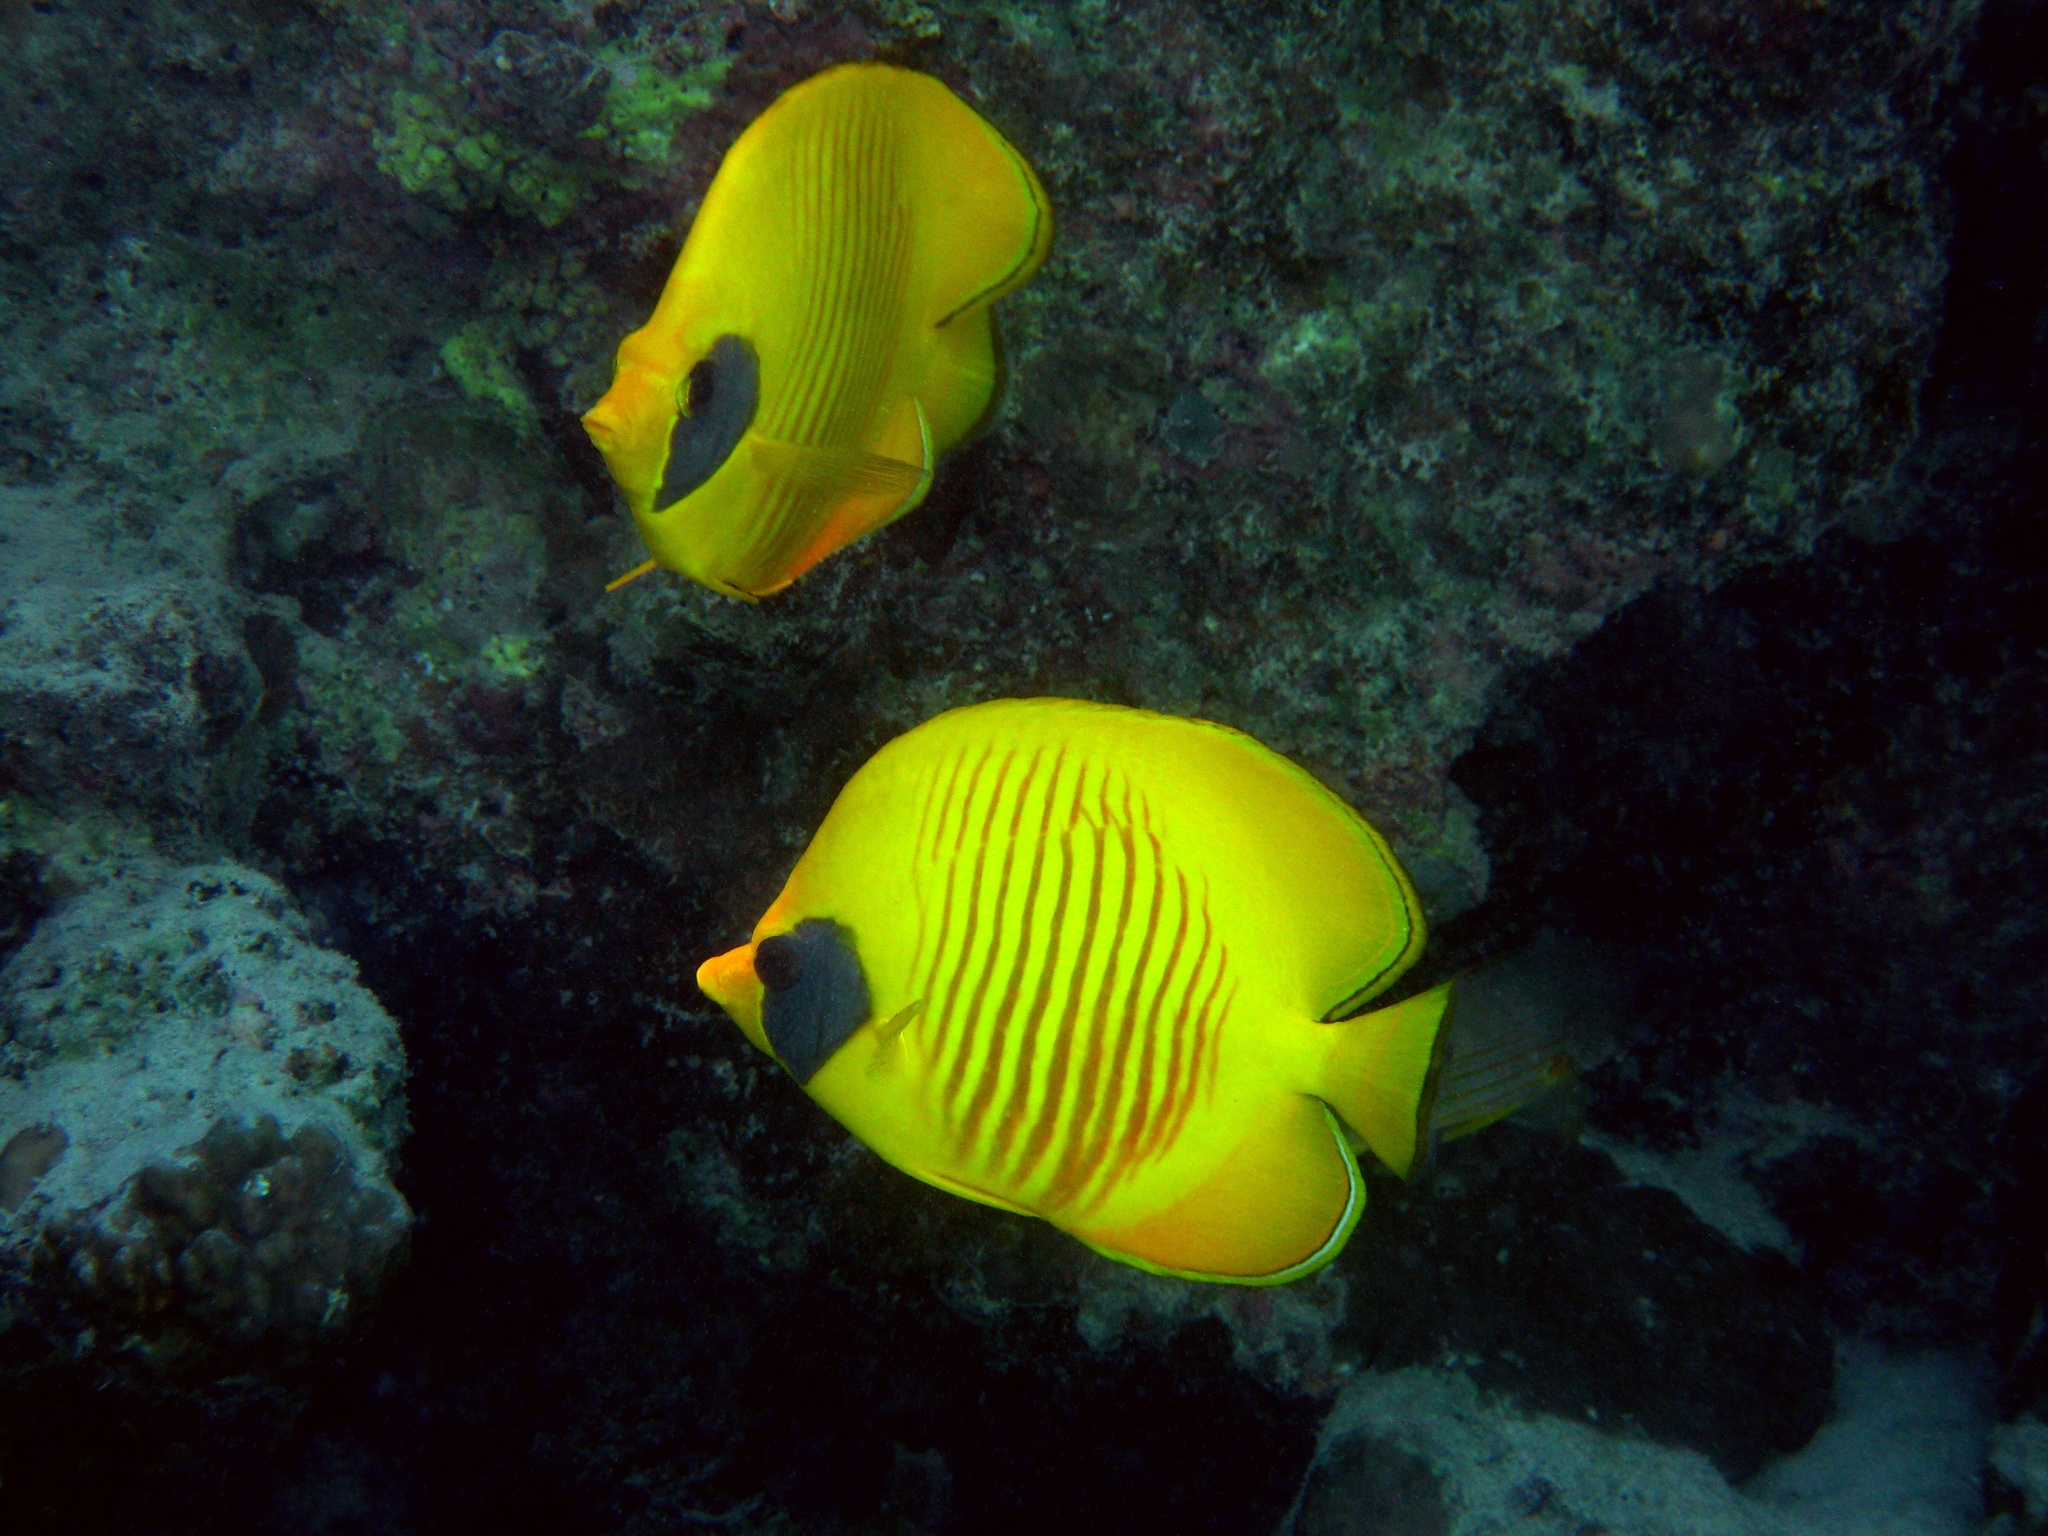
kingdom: Animalia
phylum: Chordata
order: Perciformes
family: Chaetodontidae
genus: Chaetodon
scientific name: Chaetodon semilarvatus
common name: Golden butterflyfish
